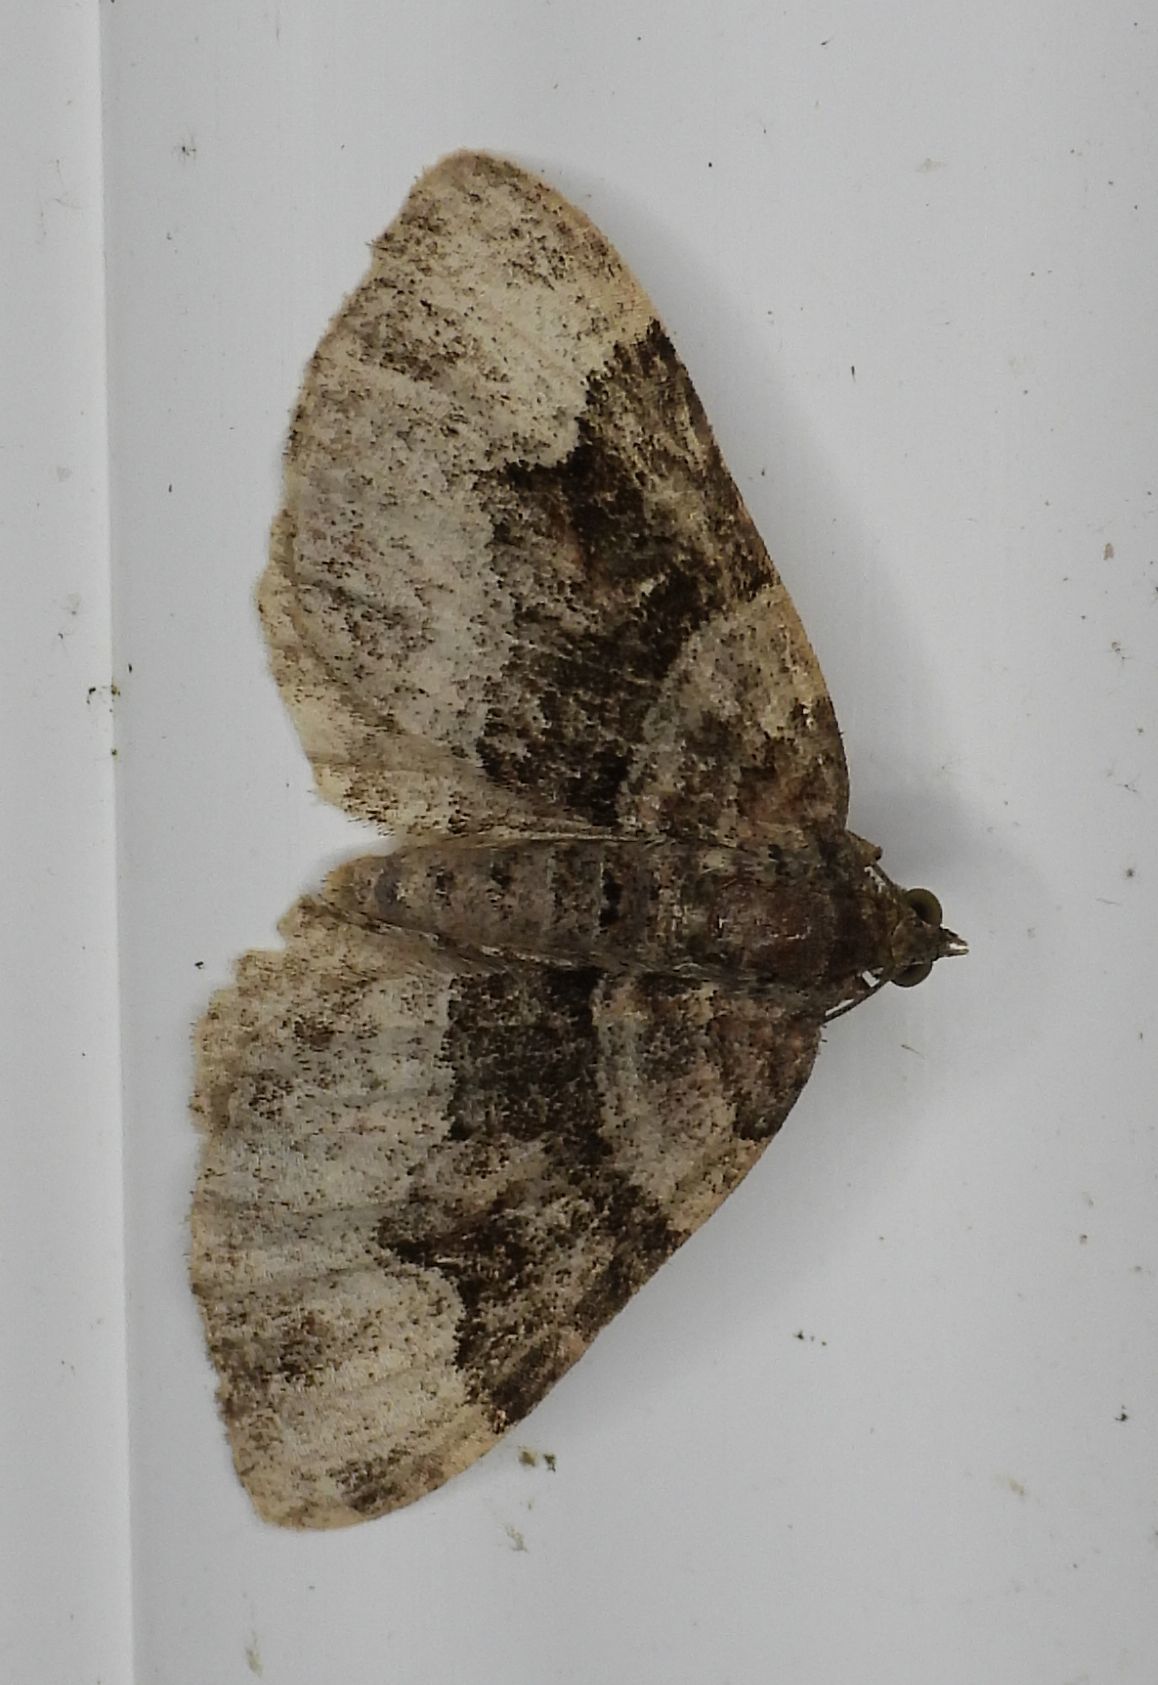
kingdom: Animalia
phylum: Arthropoda
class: Insecta
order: Lepidoptera
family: Geometridae
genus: Xanthorhoe
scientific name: Xanthorhoe lacustrata
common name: Toothed brown carpet
